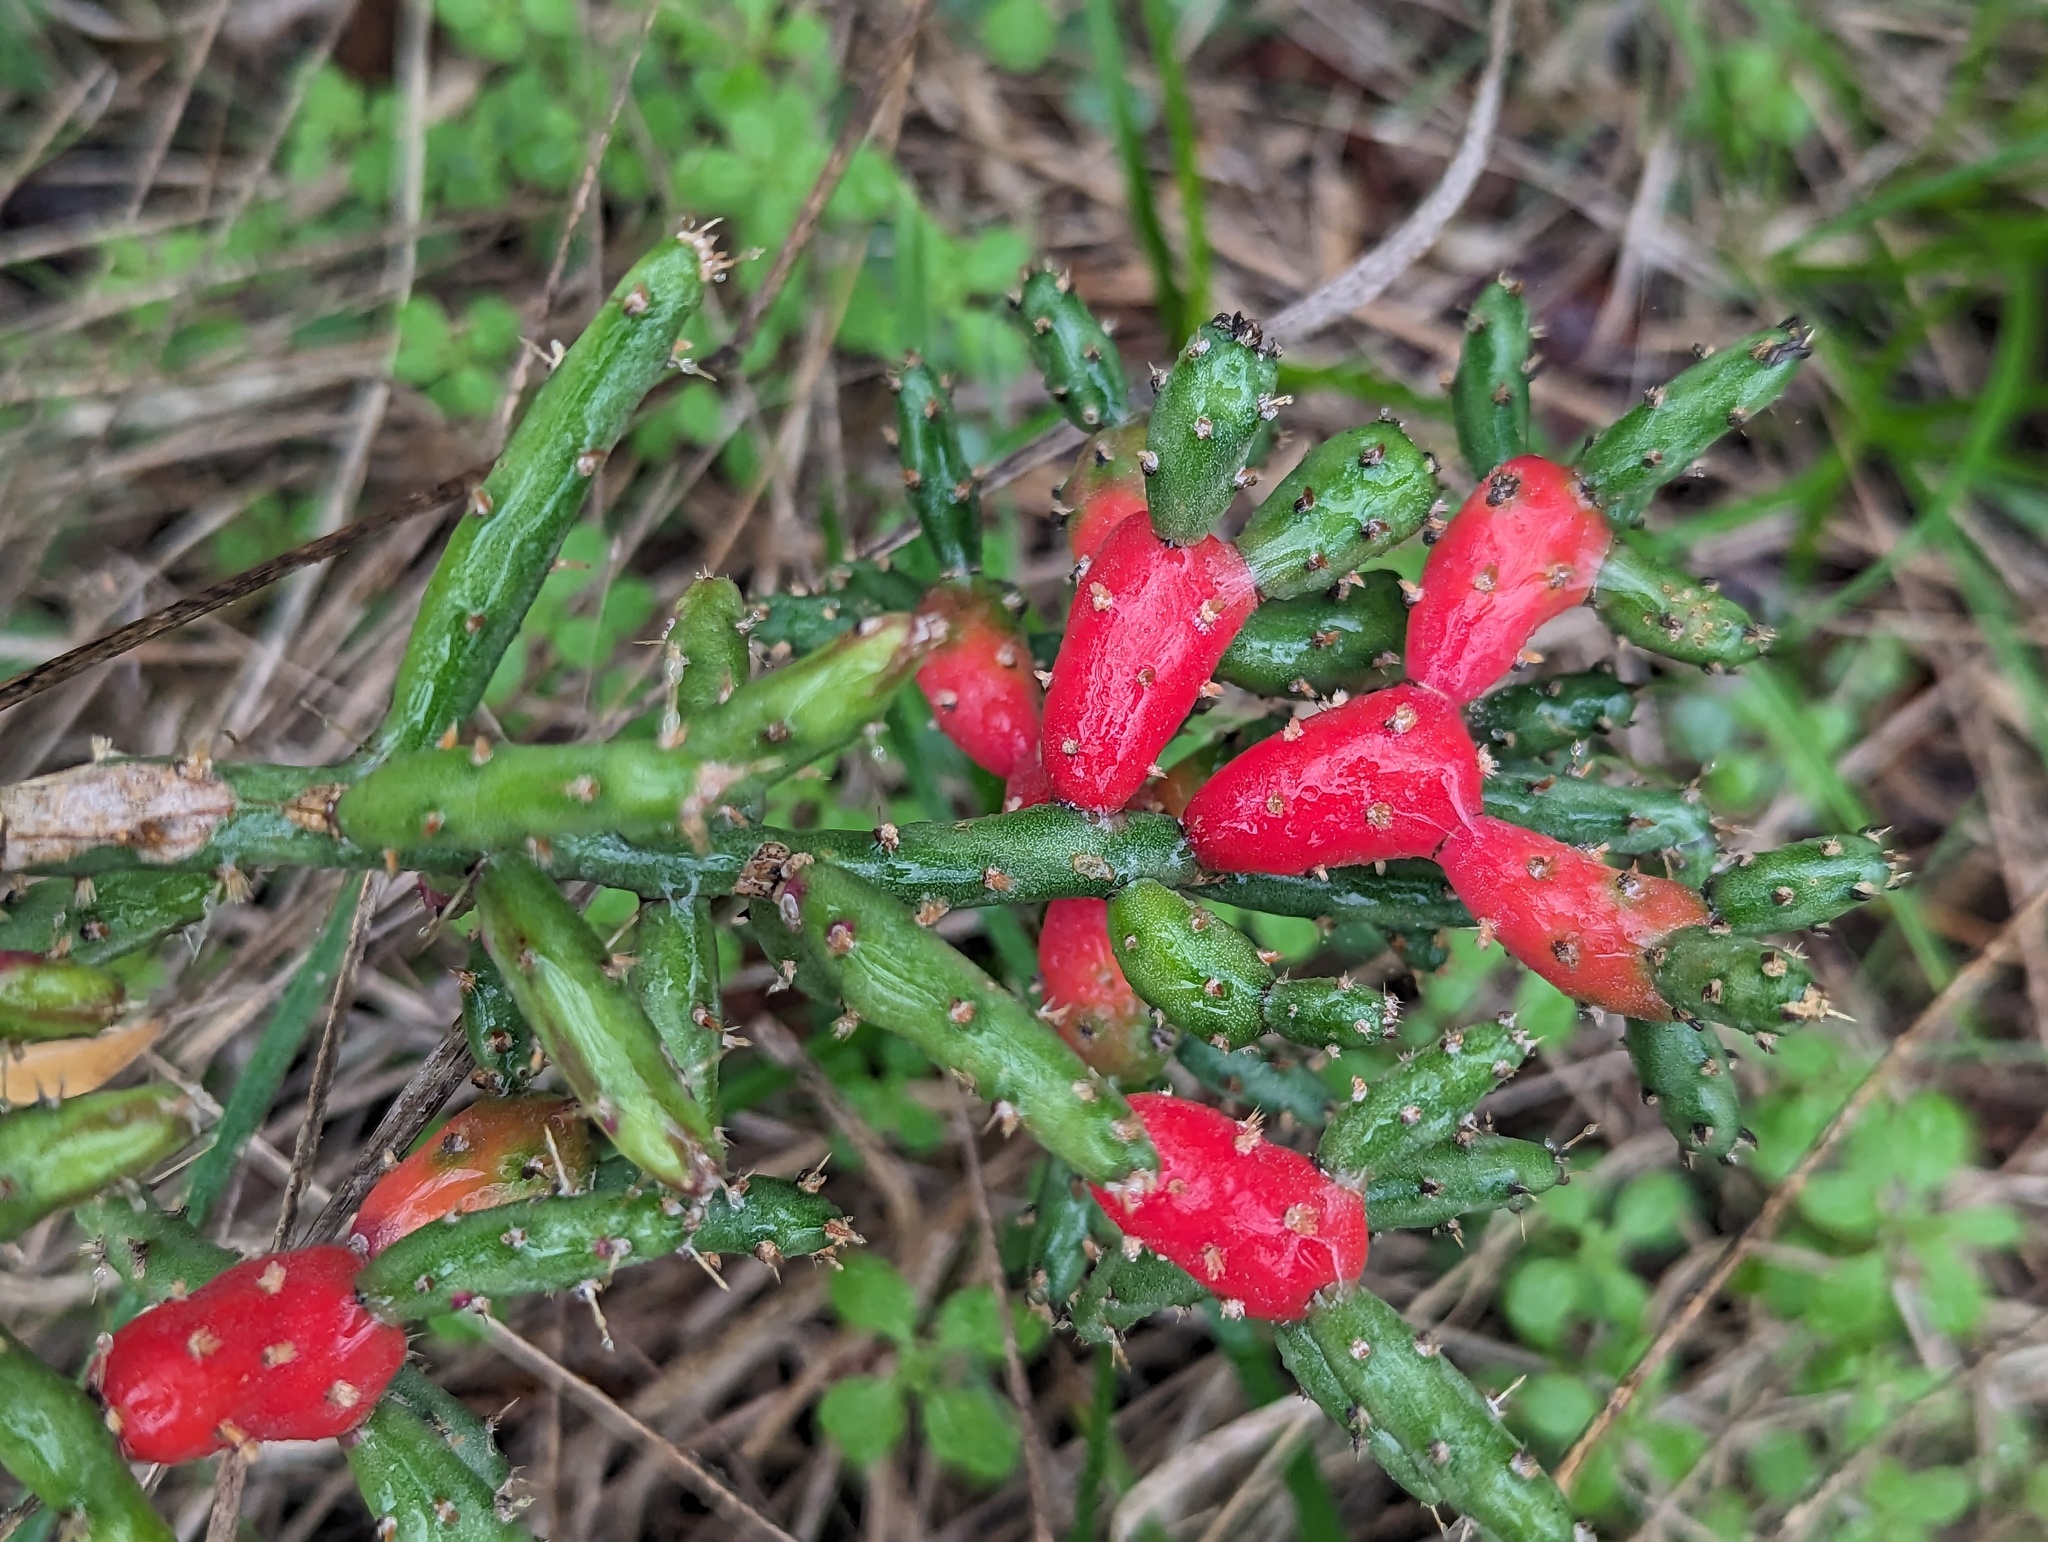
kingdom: Plantae
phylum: Tracheophyta
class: Magnoliopsida
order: Caryophyllales
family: Cactaceae
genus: Cylindropuntia
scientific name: Cylindropuntia leptocaulis
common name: Christmas cactus
